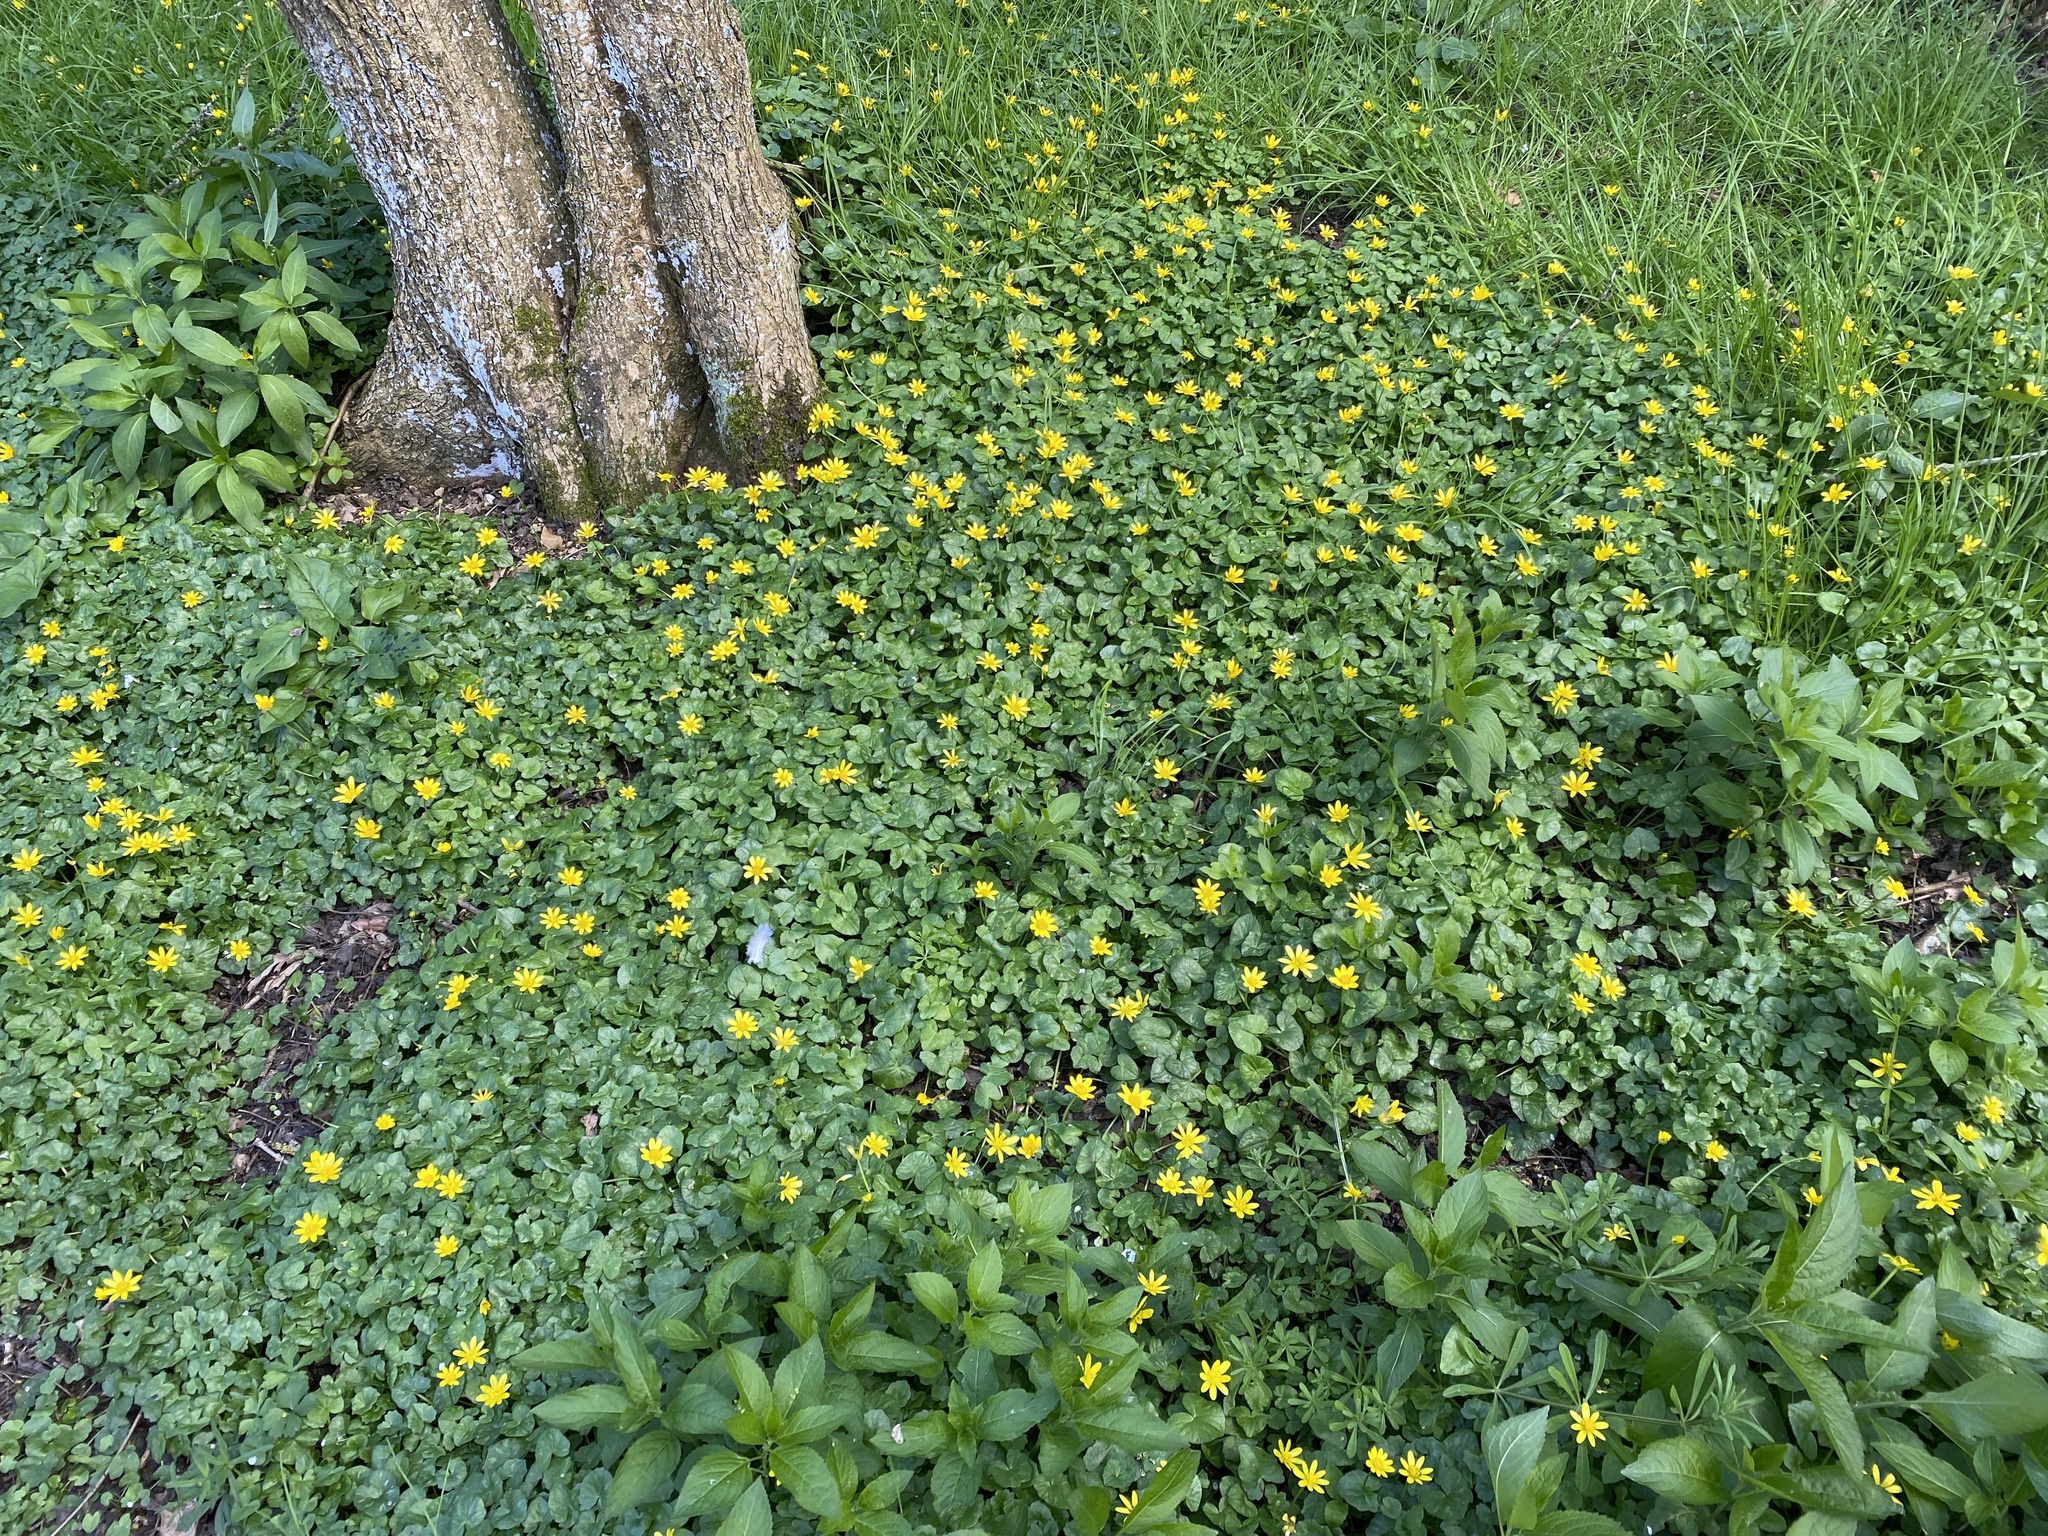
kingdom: Plantae
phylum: Tracheophyta
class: Magnoliopsida
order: Ranunculales
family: Ranunculaceae
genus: Ficaria
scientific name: Ficaria verna
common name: Lesser celandine
